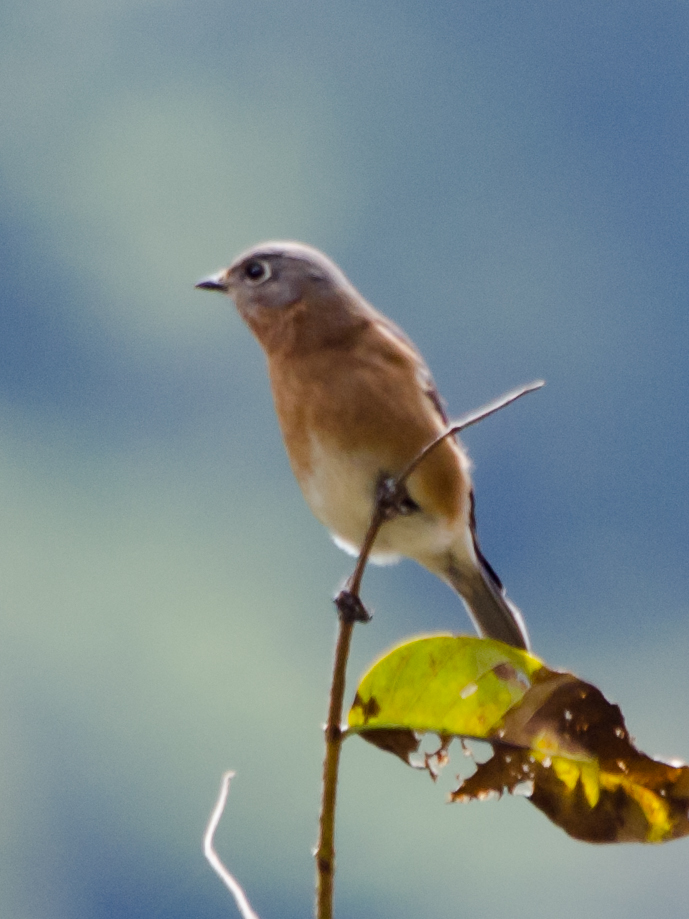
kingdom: Animalia
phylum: Chordata
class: Aves
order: Passeriformes
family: Turdidae
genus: Sialia
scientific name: Sialia sialis
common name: Eastern bluebird
